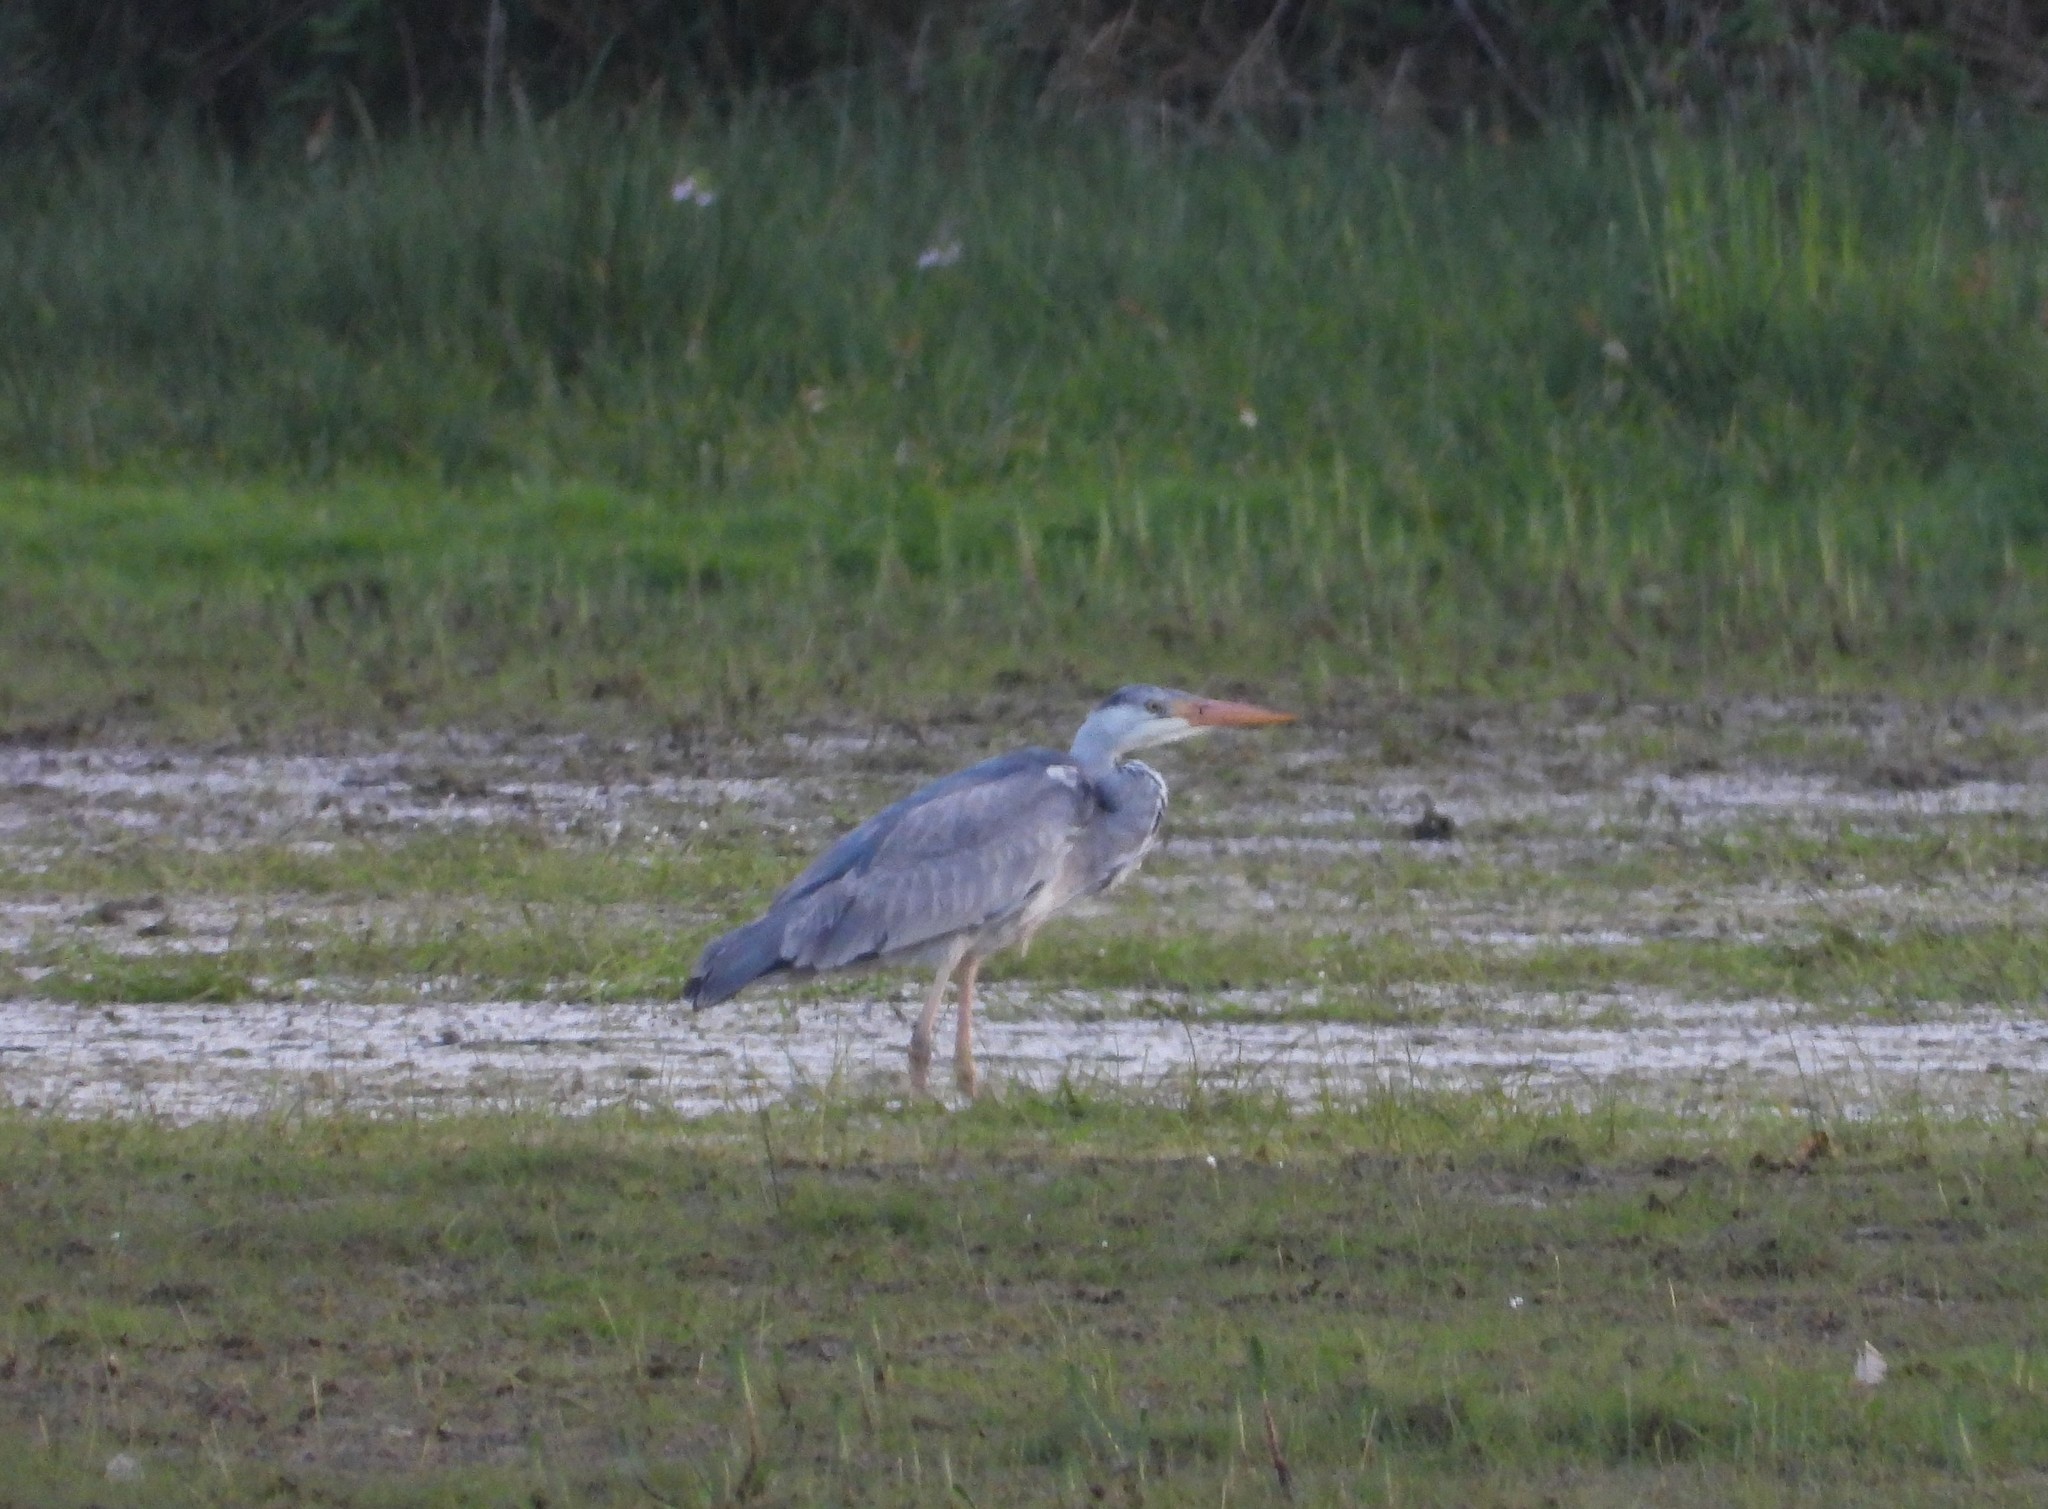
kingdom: Animalia
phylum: Chordata
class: Aves
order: Pelecaniformes
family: Ardeidae
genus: Ardea
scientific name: Ardea cinerea
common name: Grey heron
